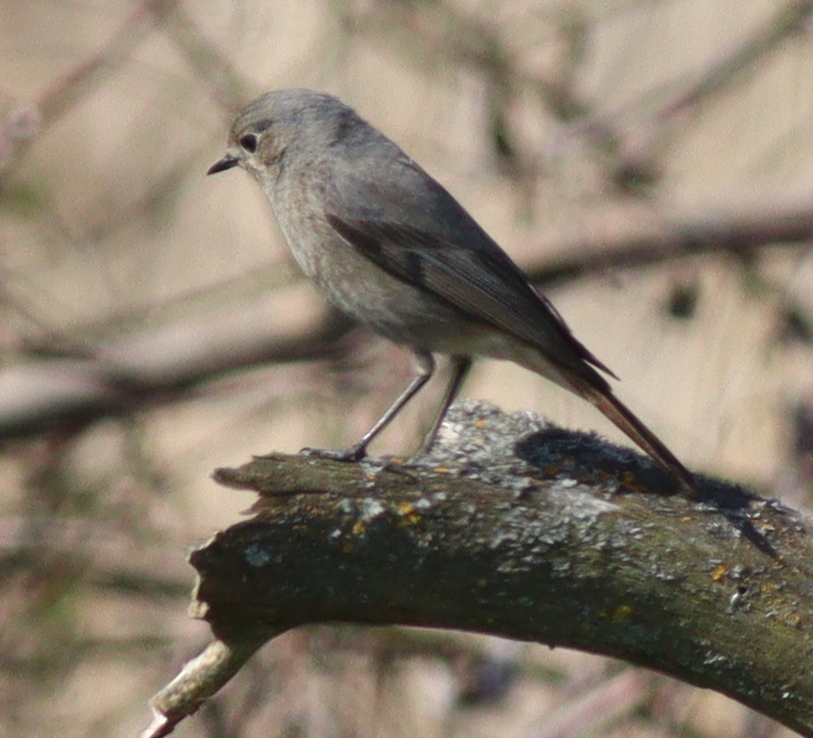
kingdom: Animalia
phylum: Chordata
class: Aves
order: Passeriformes
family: Muscicapidae
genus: Phoenicurus
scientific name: Phoenicurus ochruros
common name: Black redstart
